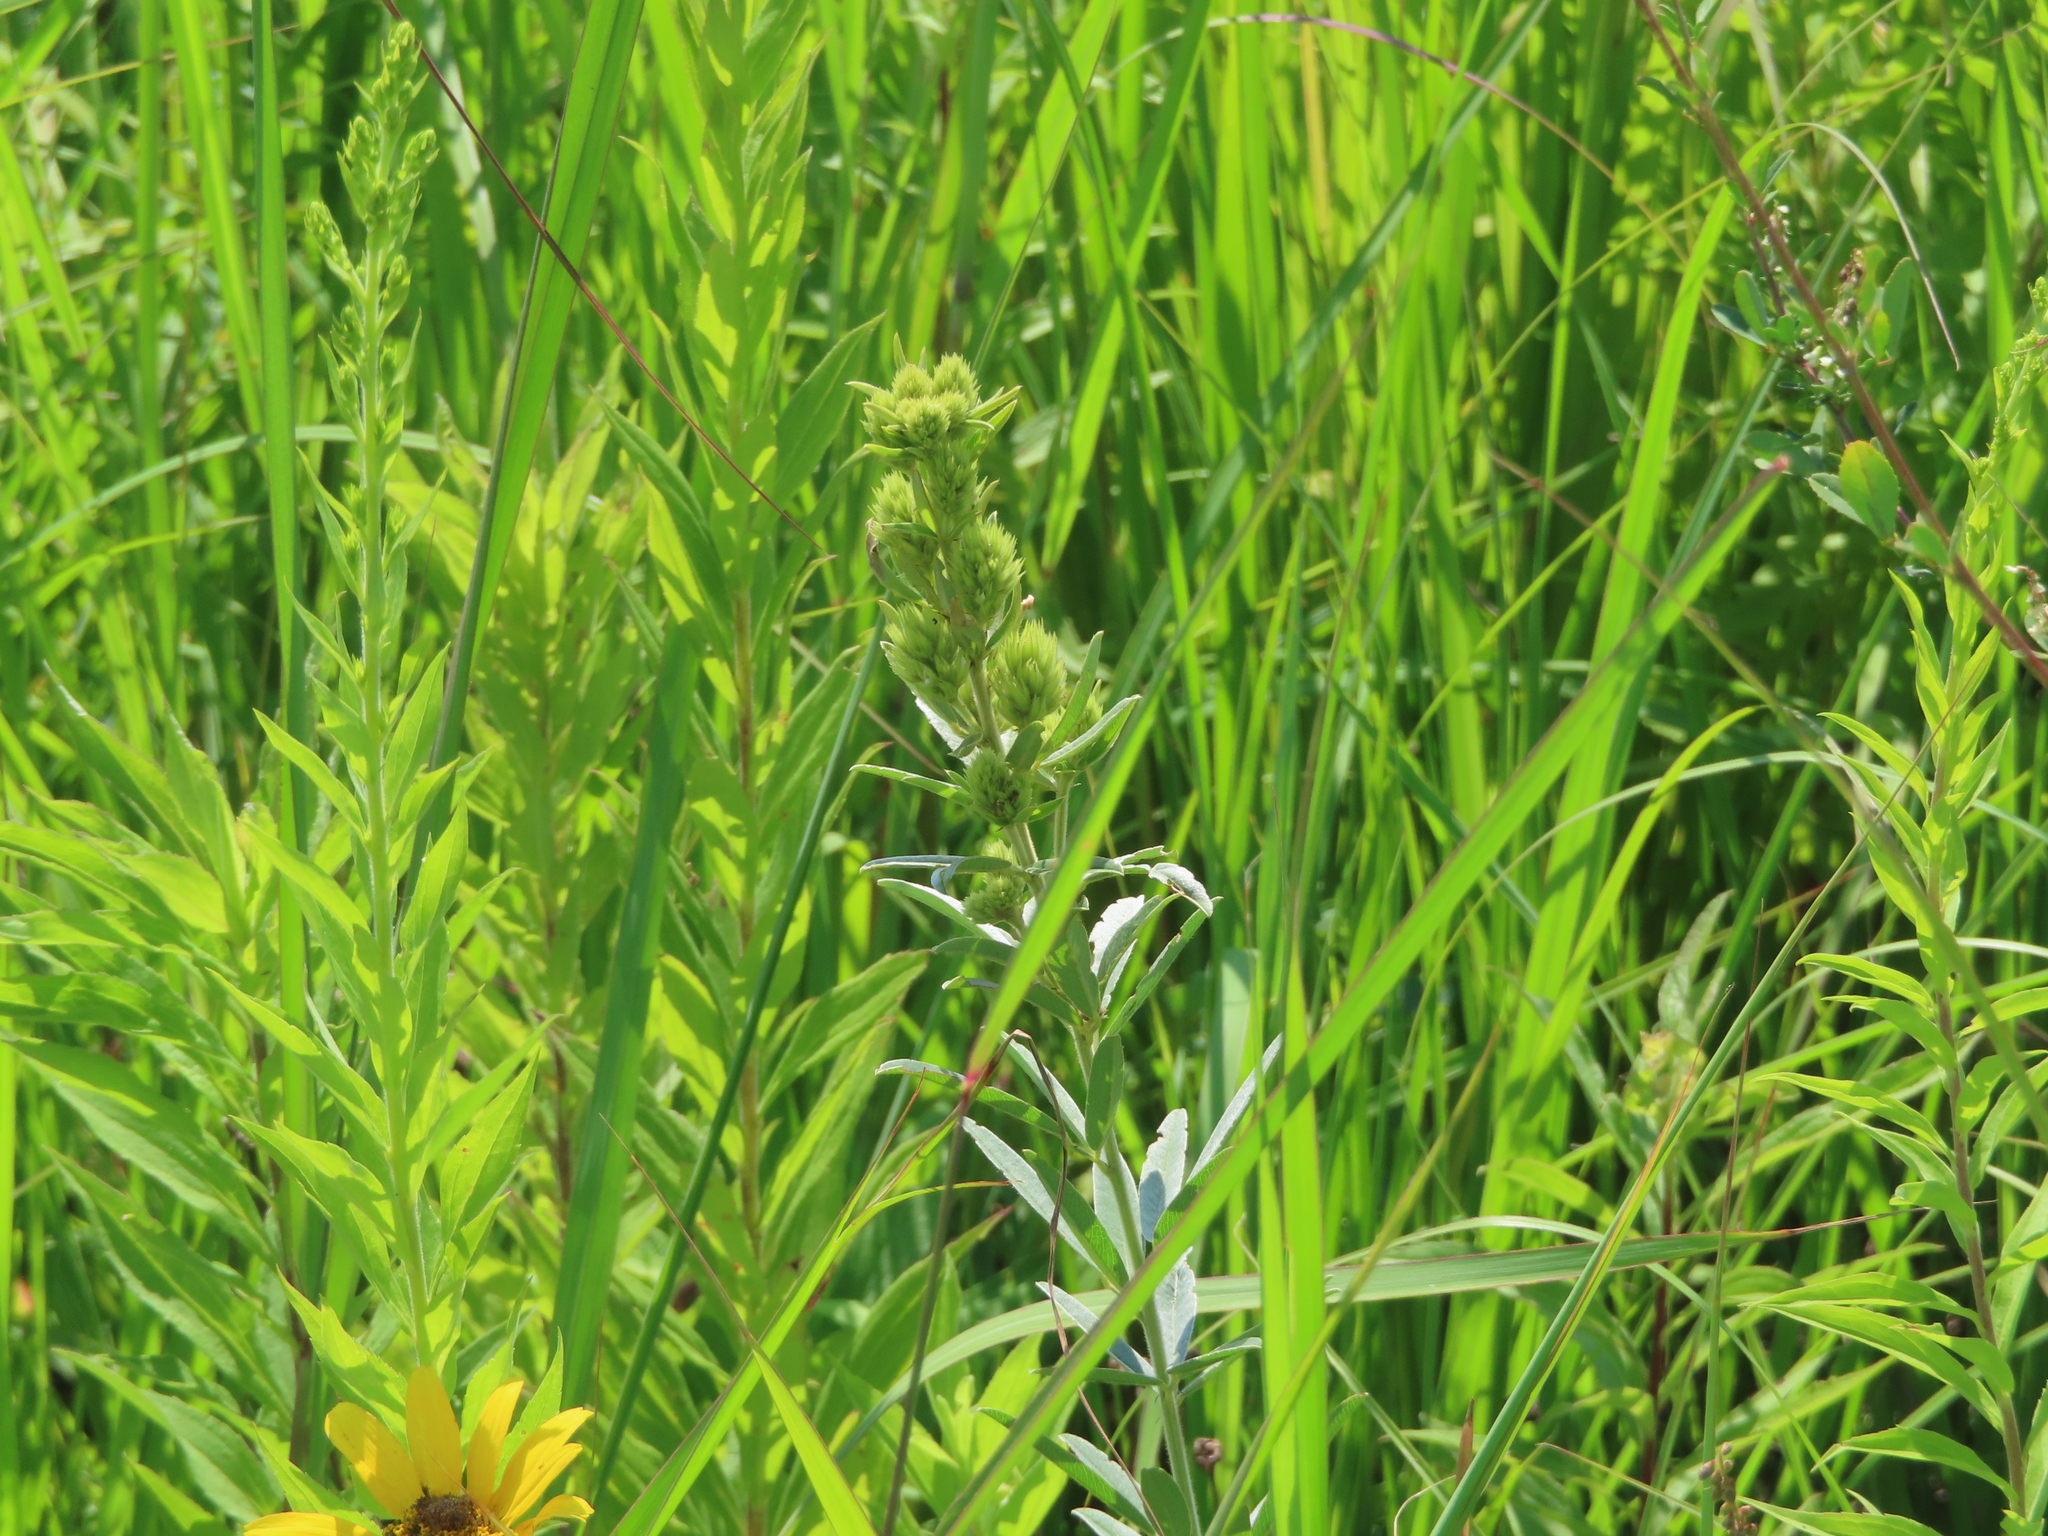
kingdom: Plantae
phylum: Tracheophyta
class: Magnoliopsida
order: Fabales
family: Fabaceae
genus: Lespedeza
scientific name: Lespedeza capitata
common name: Dusty clover
